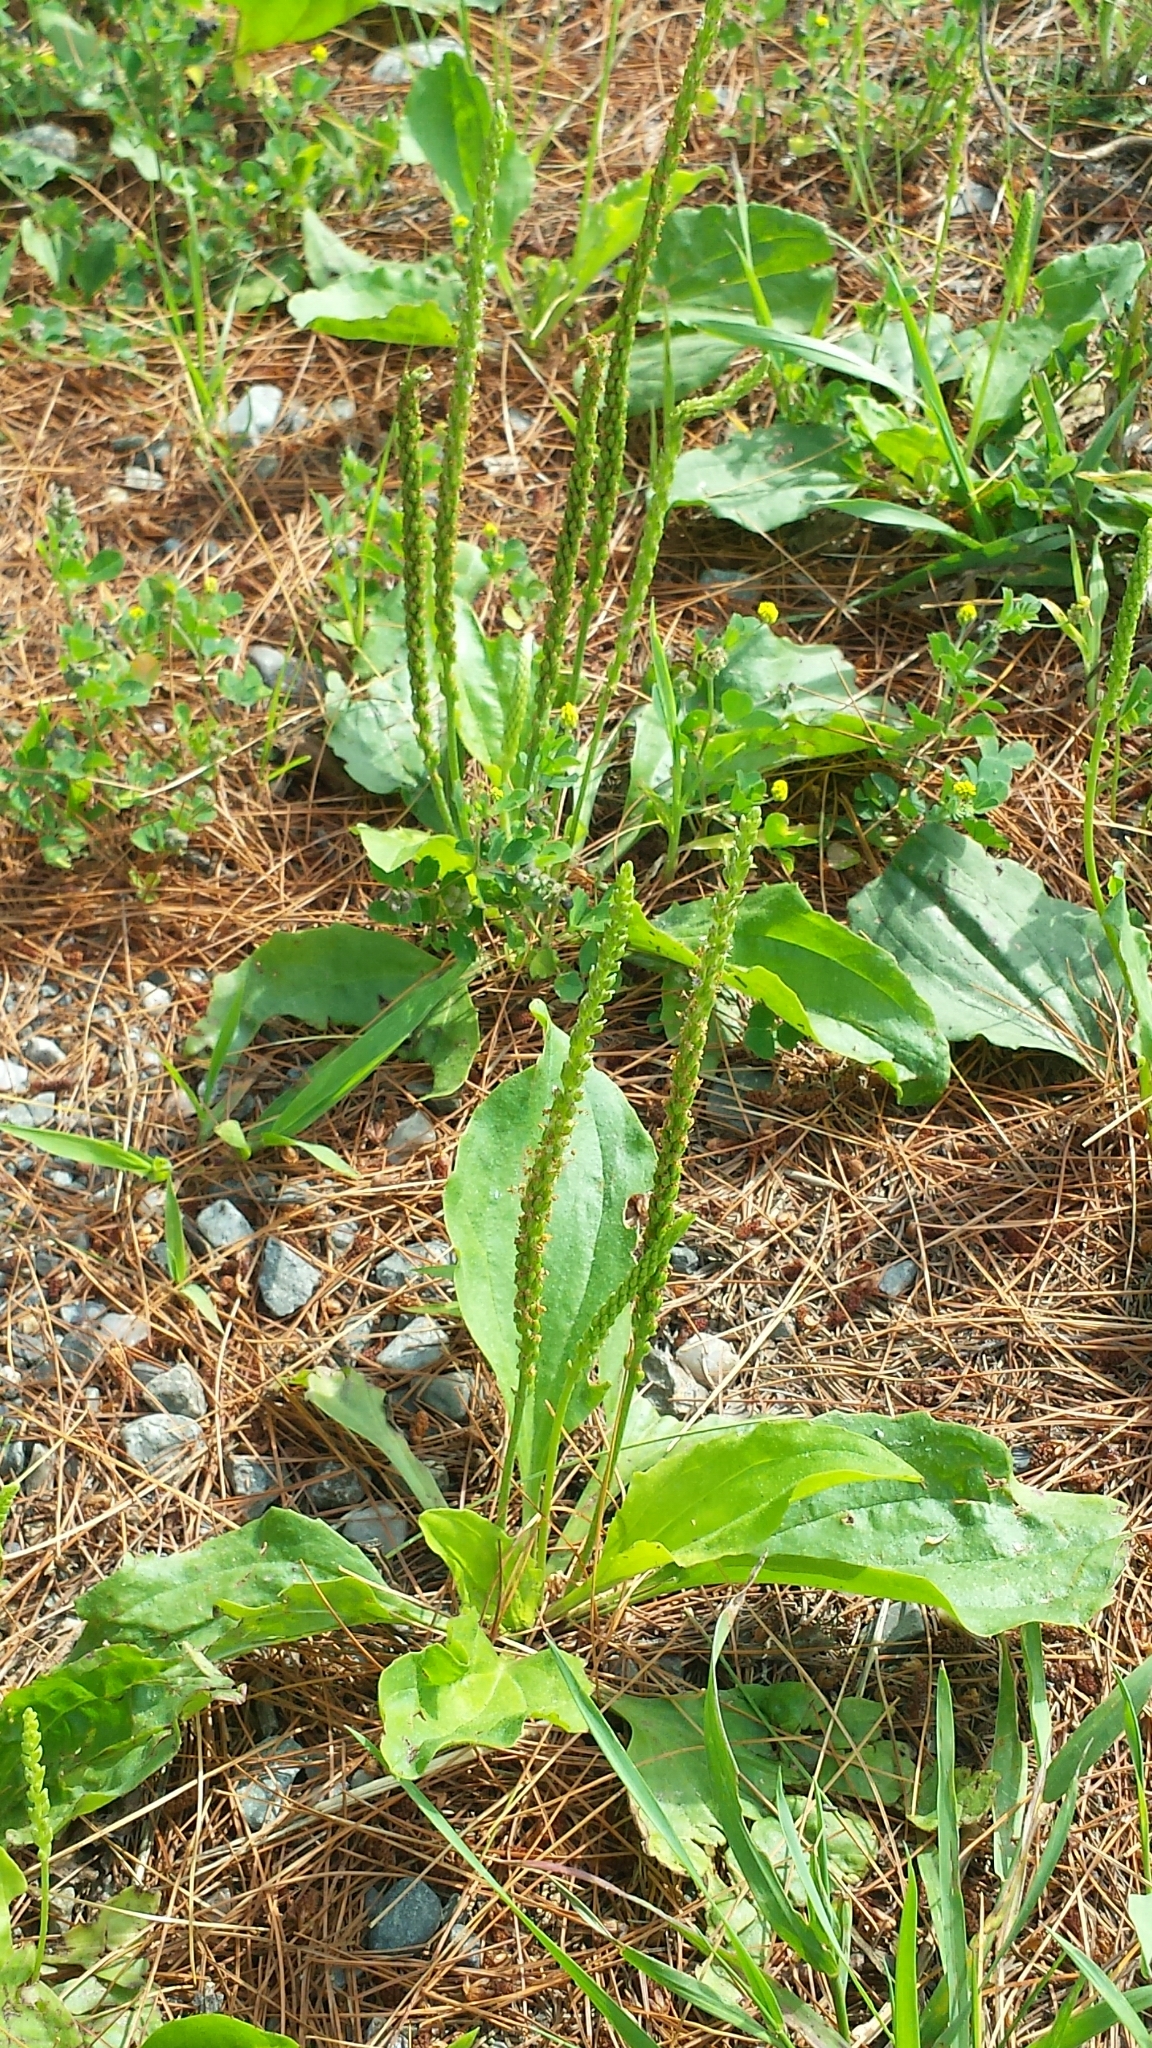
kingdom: Plantae
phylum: Tracheophyta
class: Magnoliopsida
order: Lamiales
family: Plantaginaceae
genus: Plantago
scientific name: Plantago major
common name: Common plantain
